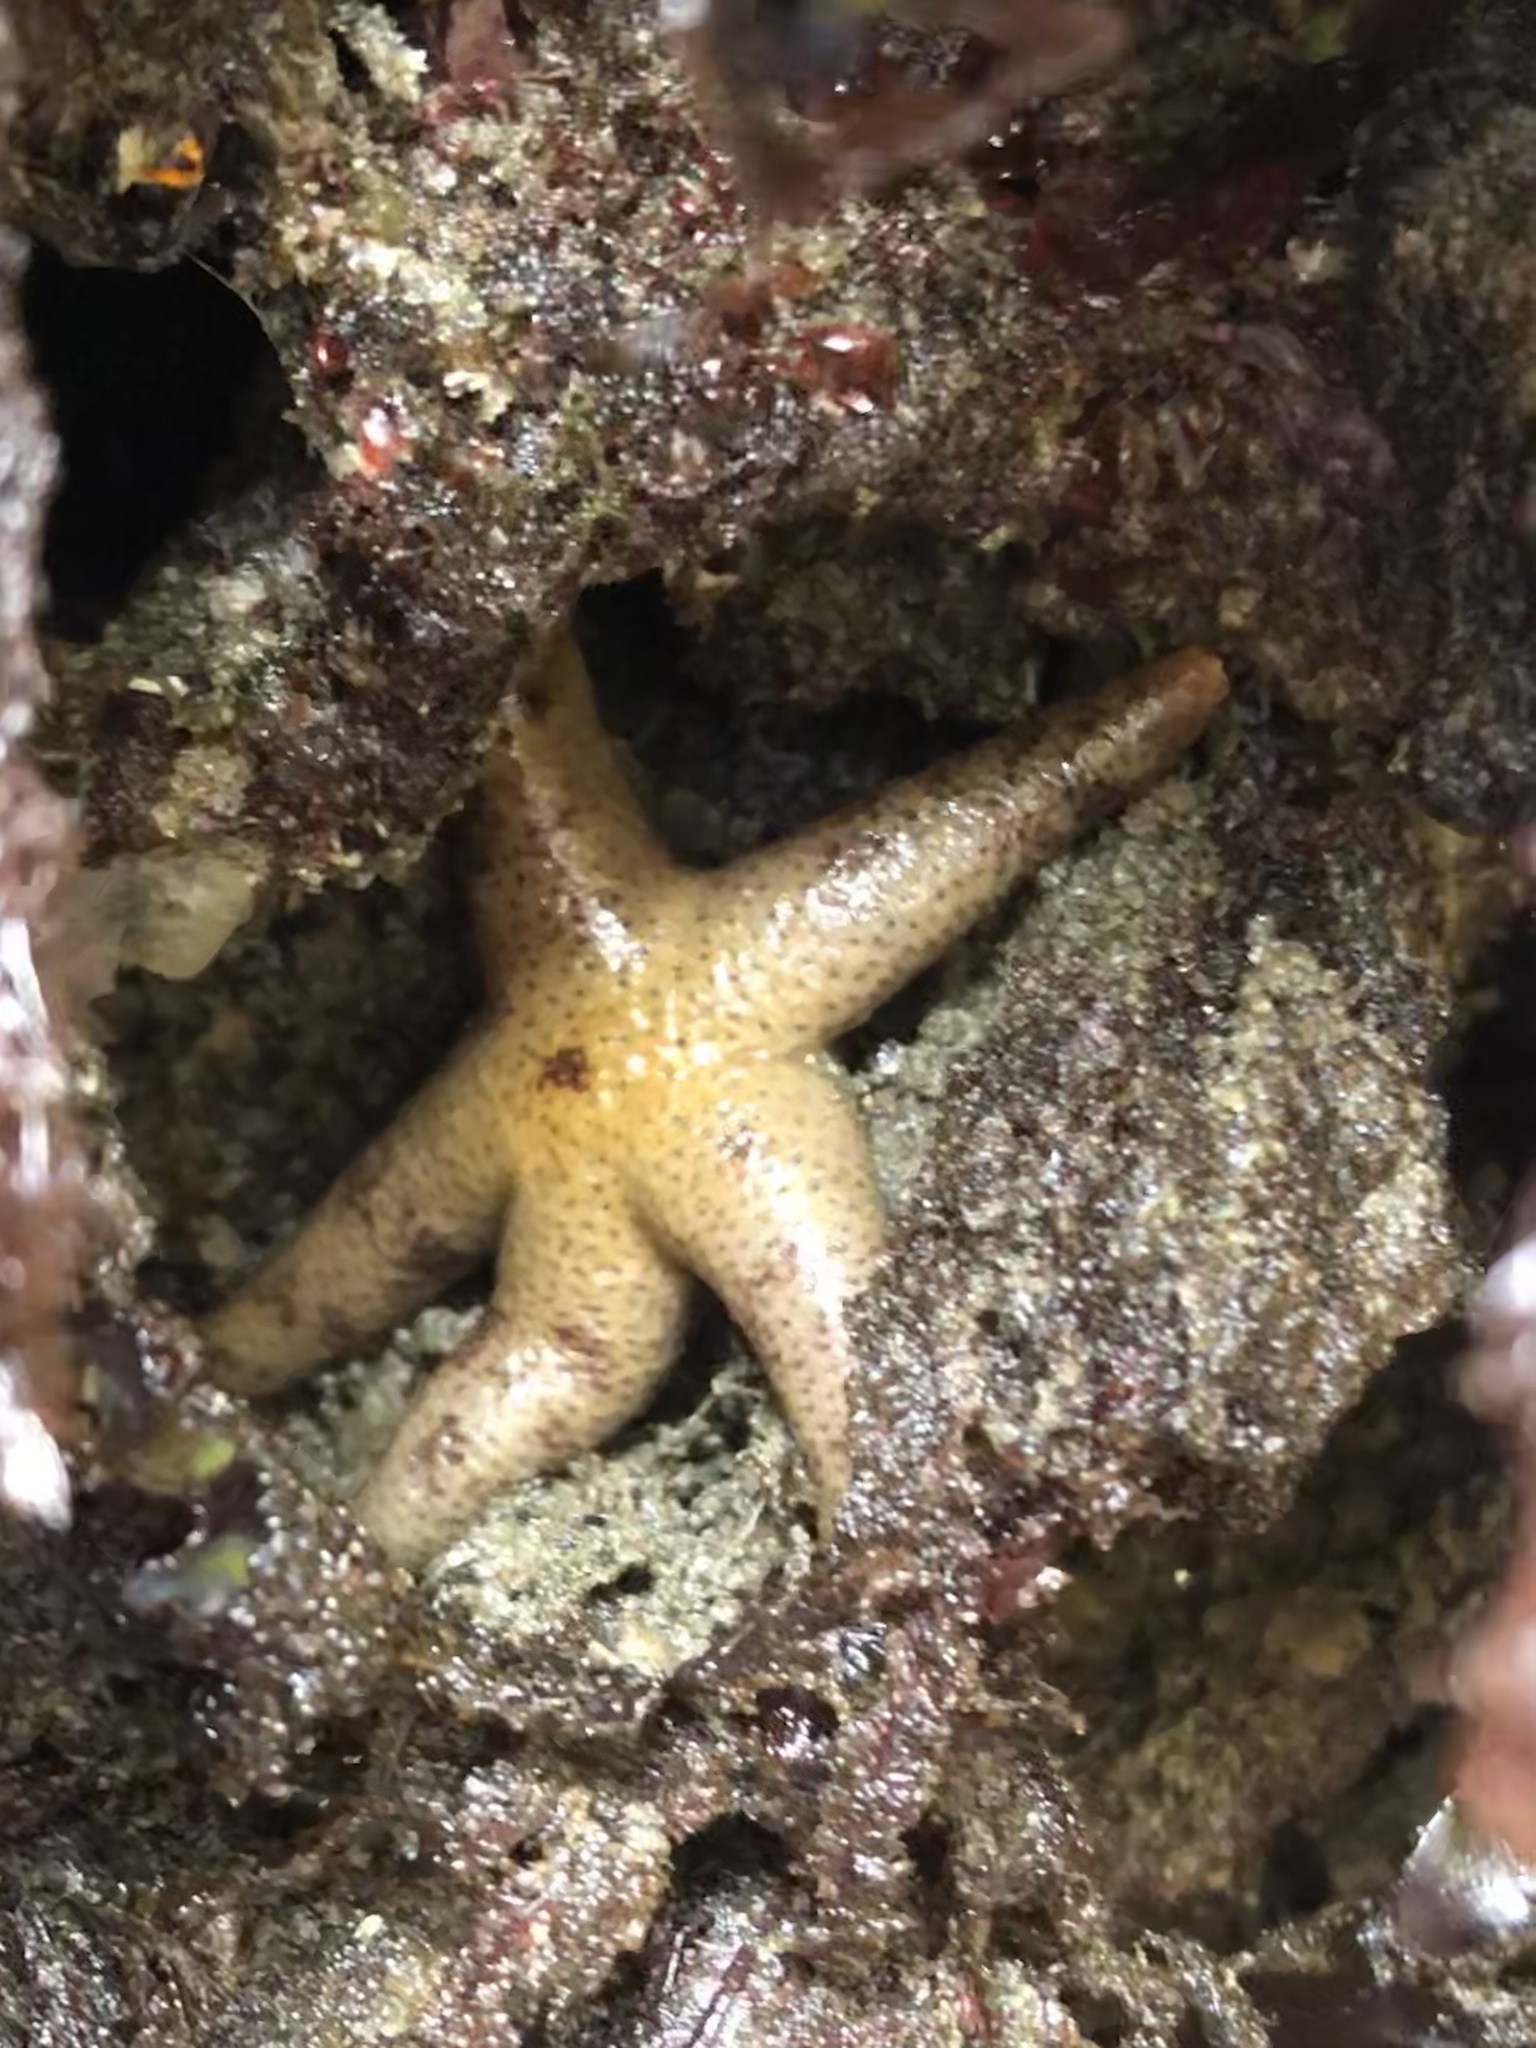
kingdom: Animalia
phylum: Echinodermata
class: Asteroidea
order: Spinulosida
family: Echinasteridae
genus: Henricia
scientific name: Henricia pumila
